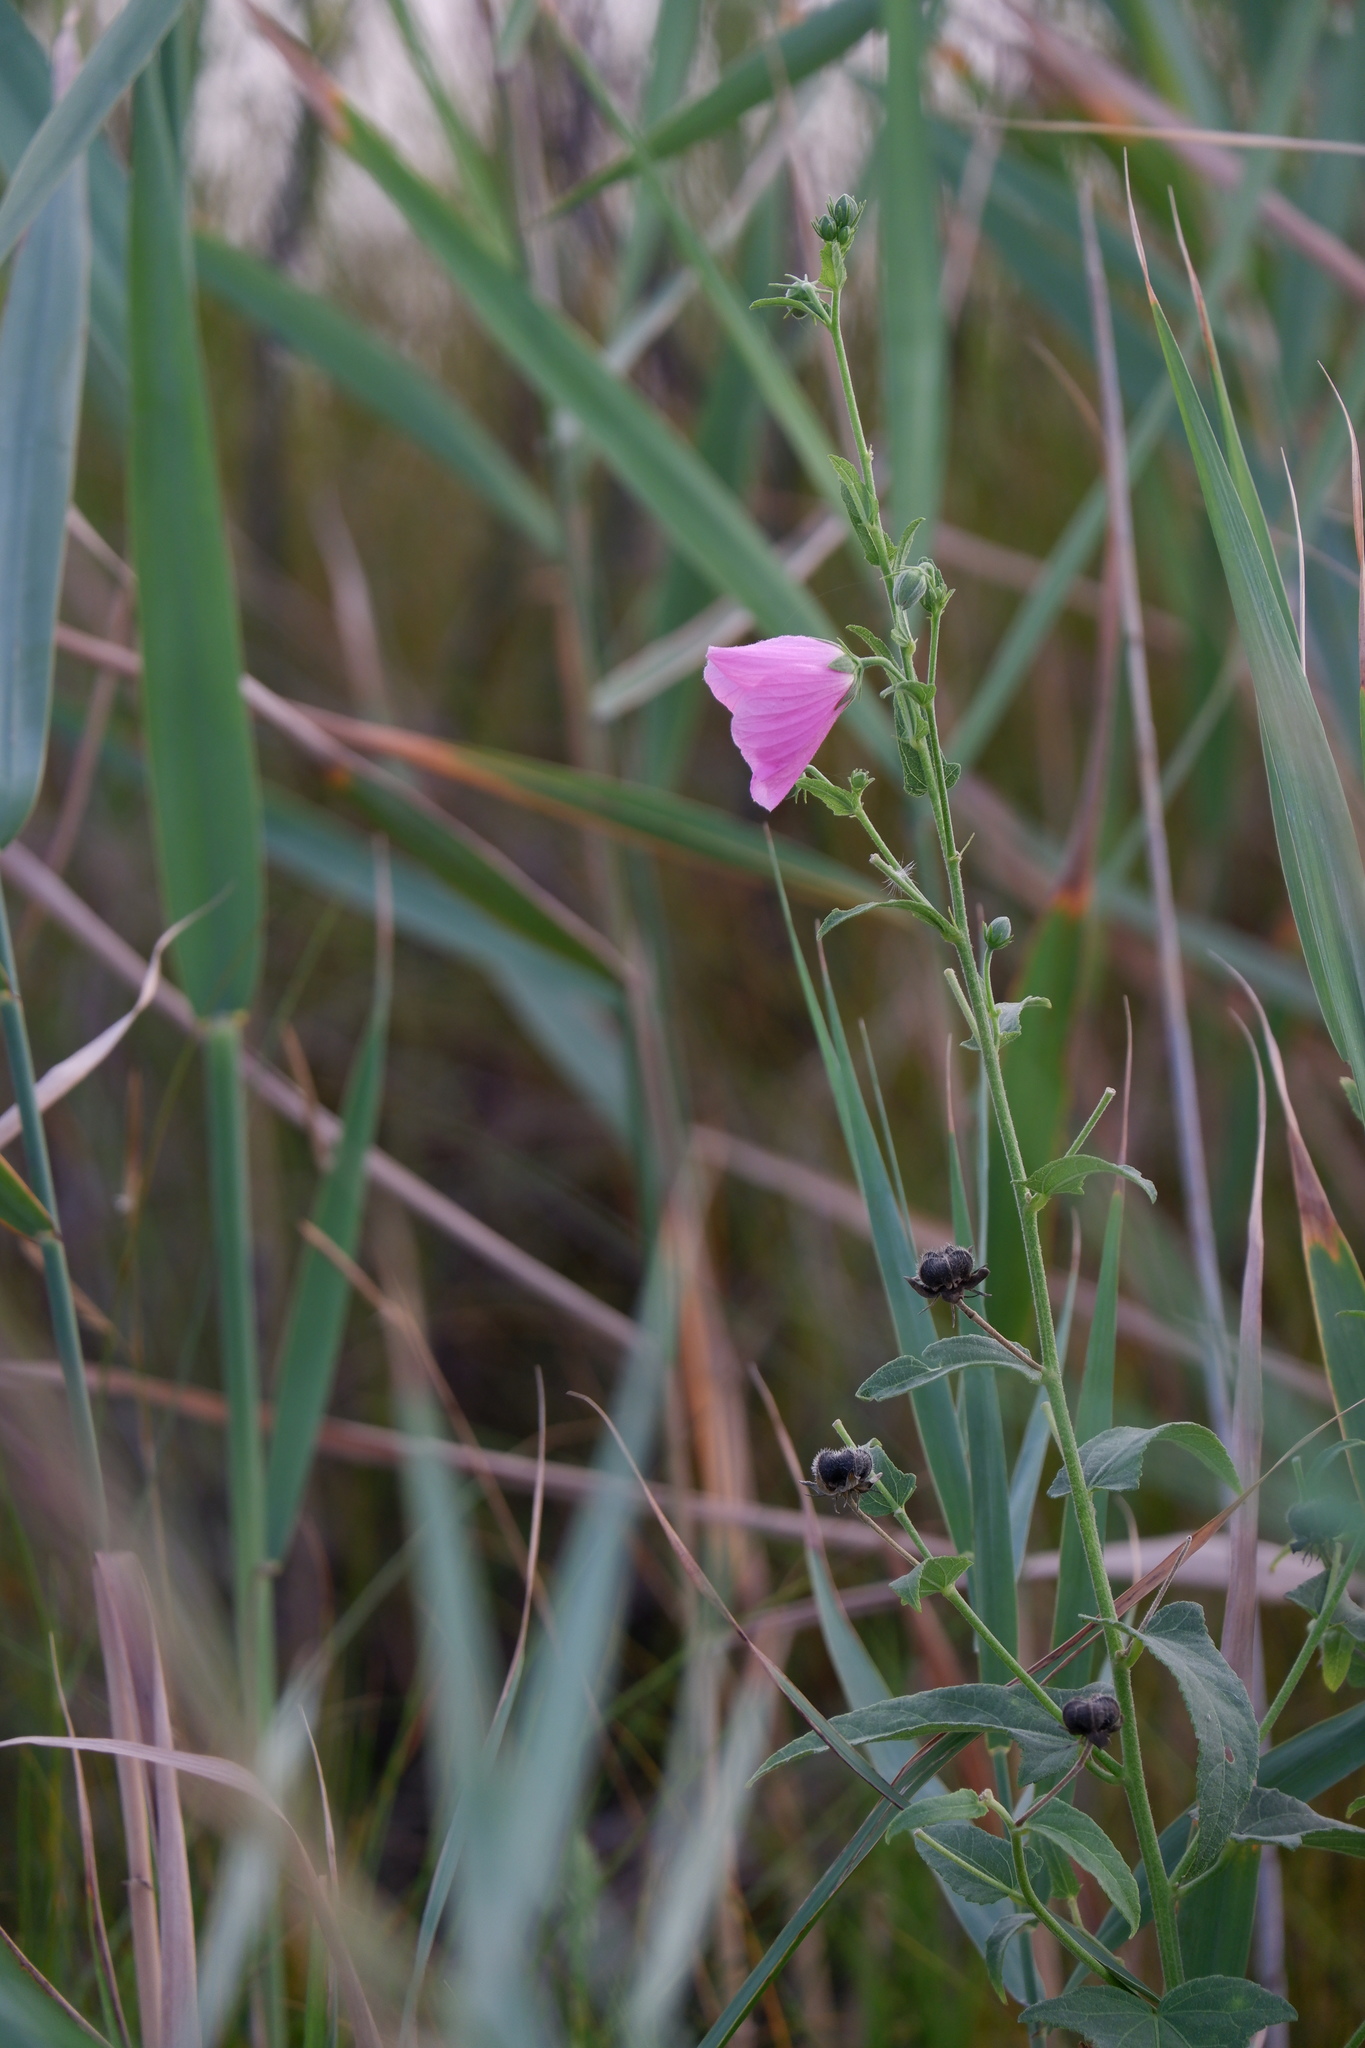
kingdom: Plantae
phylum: Tracheophyta
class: Magnoliopsida
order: Malvales
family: Malvaceae
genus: Kosteletzkya
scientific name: Kosteletzkya pentacarpos
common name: Virginia saltmarsh mallow
